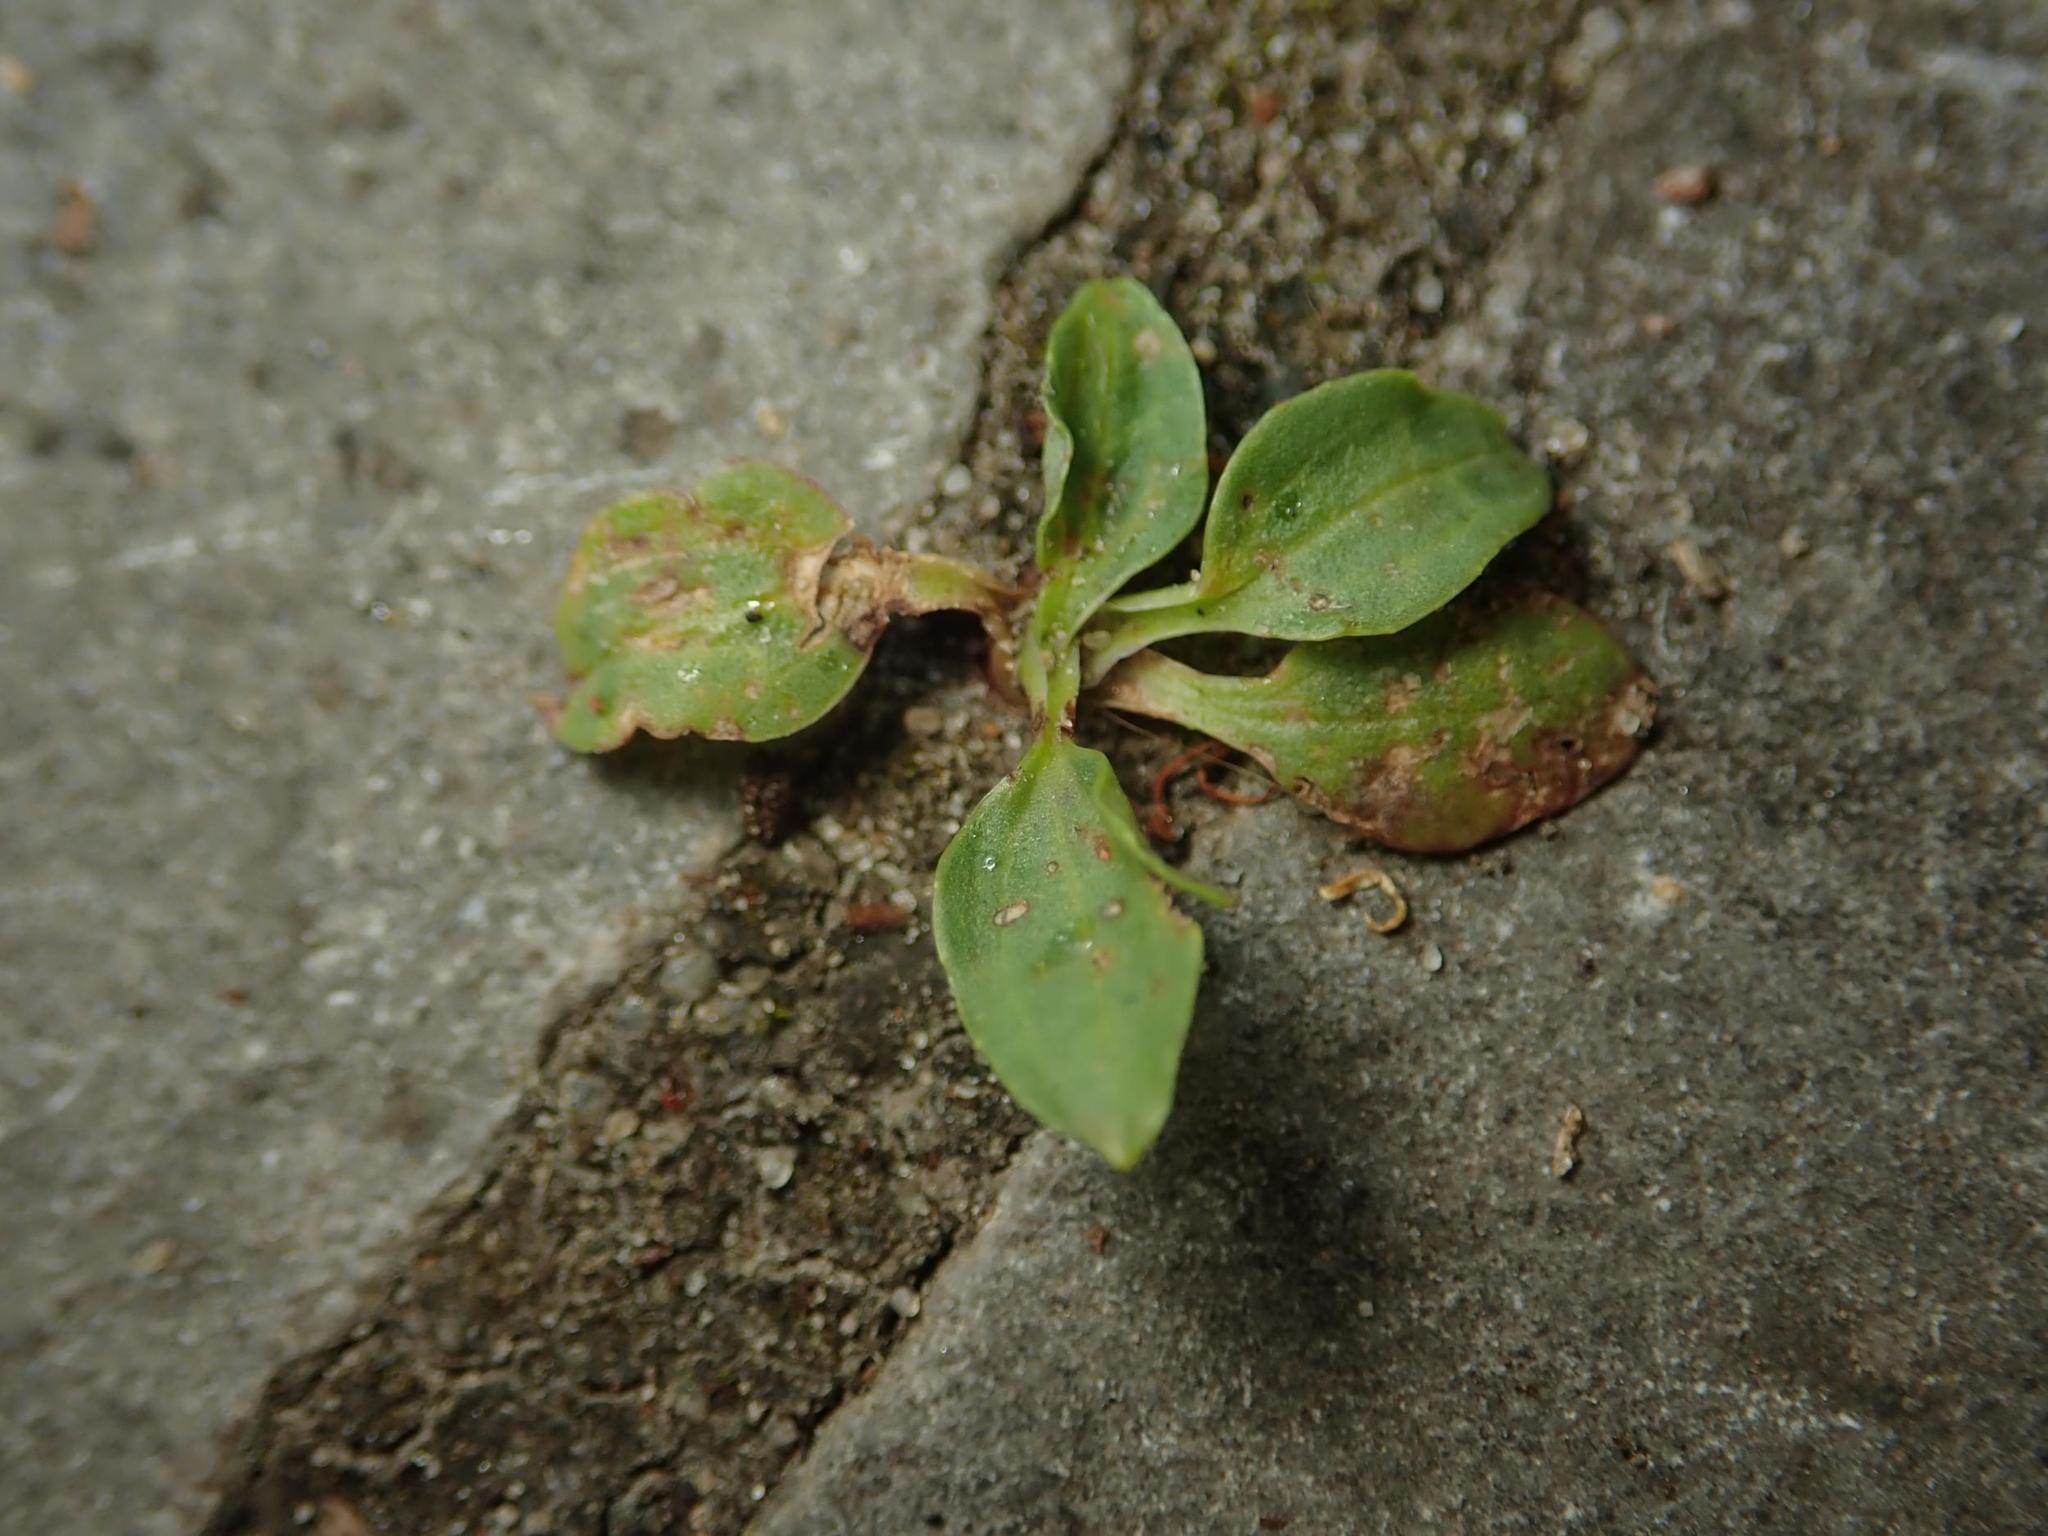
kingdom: Plantae
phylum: Tracheophyta
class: Magnoliopsida
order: Lamiales
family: Plantaginaceae
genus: Plantago
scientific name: Plantago major
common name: Common plantain
